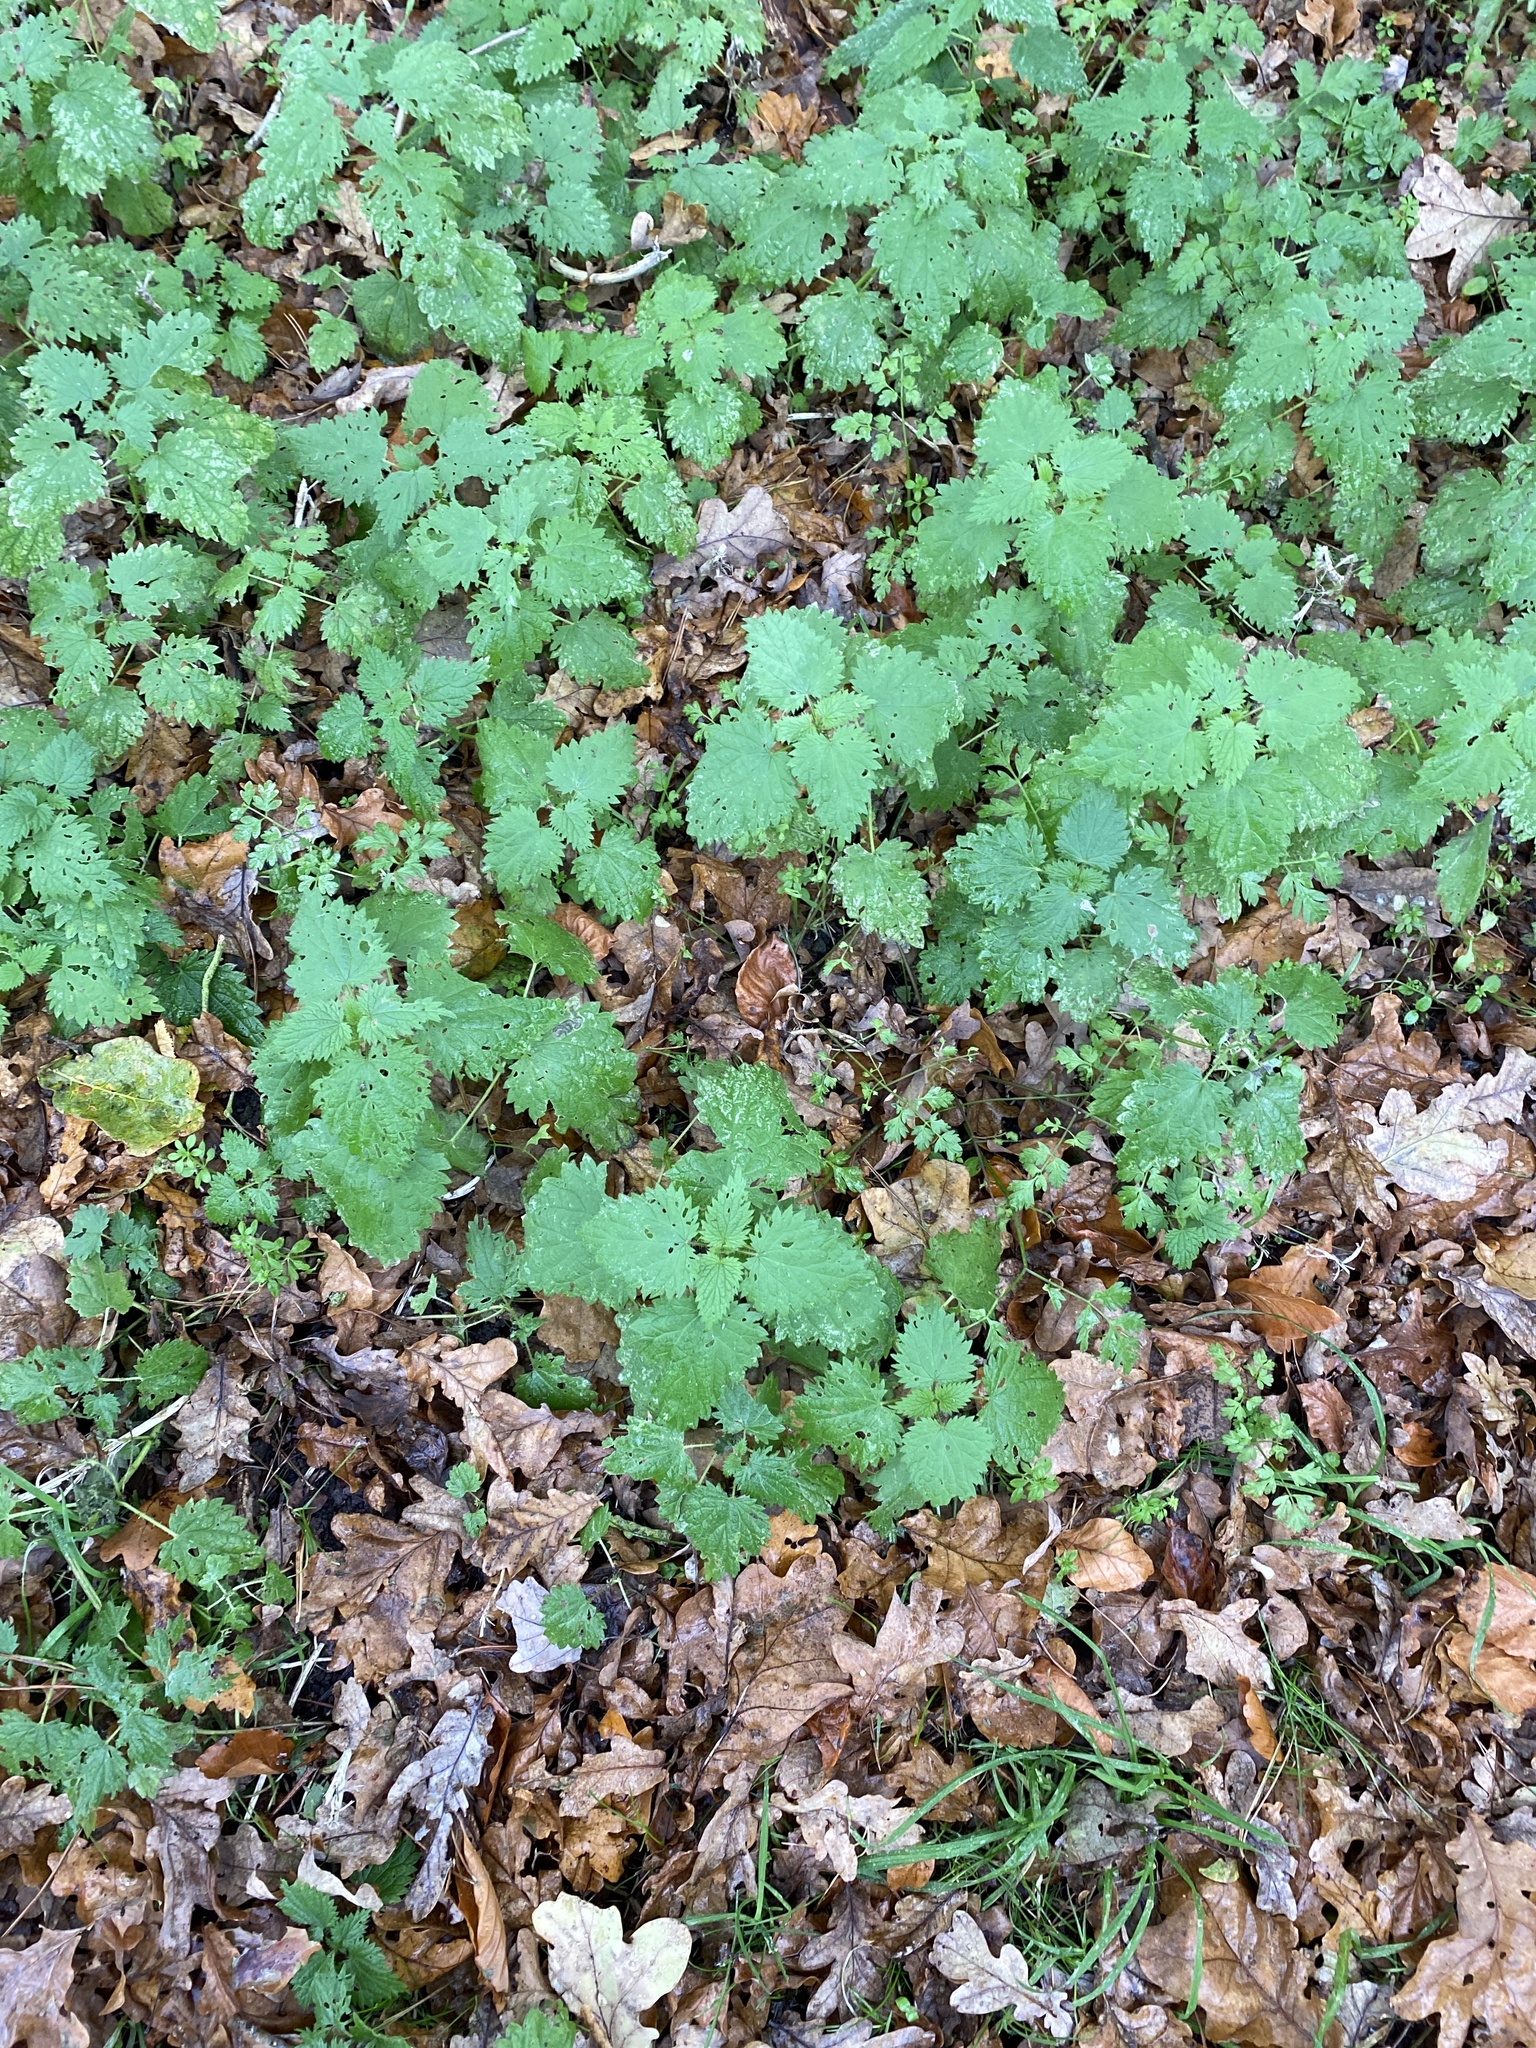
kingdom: Plantae
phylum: Tracheophyta
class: Magnoliopsida
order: Rosales
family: Urticaceae
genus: Urtica
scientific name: Urtica dioica
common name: Common nettle
